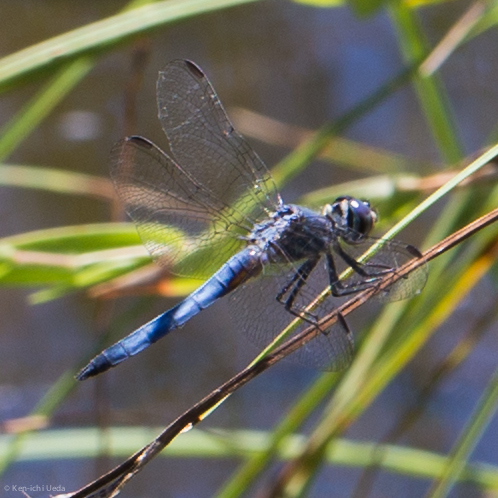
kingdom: Animalia
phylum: Arthropoda
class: Insecta
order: Odonata
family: Libellulidae
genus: Pachydiplax
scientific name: Pachydiplax longipennis
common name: Blue dasher
